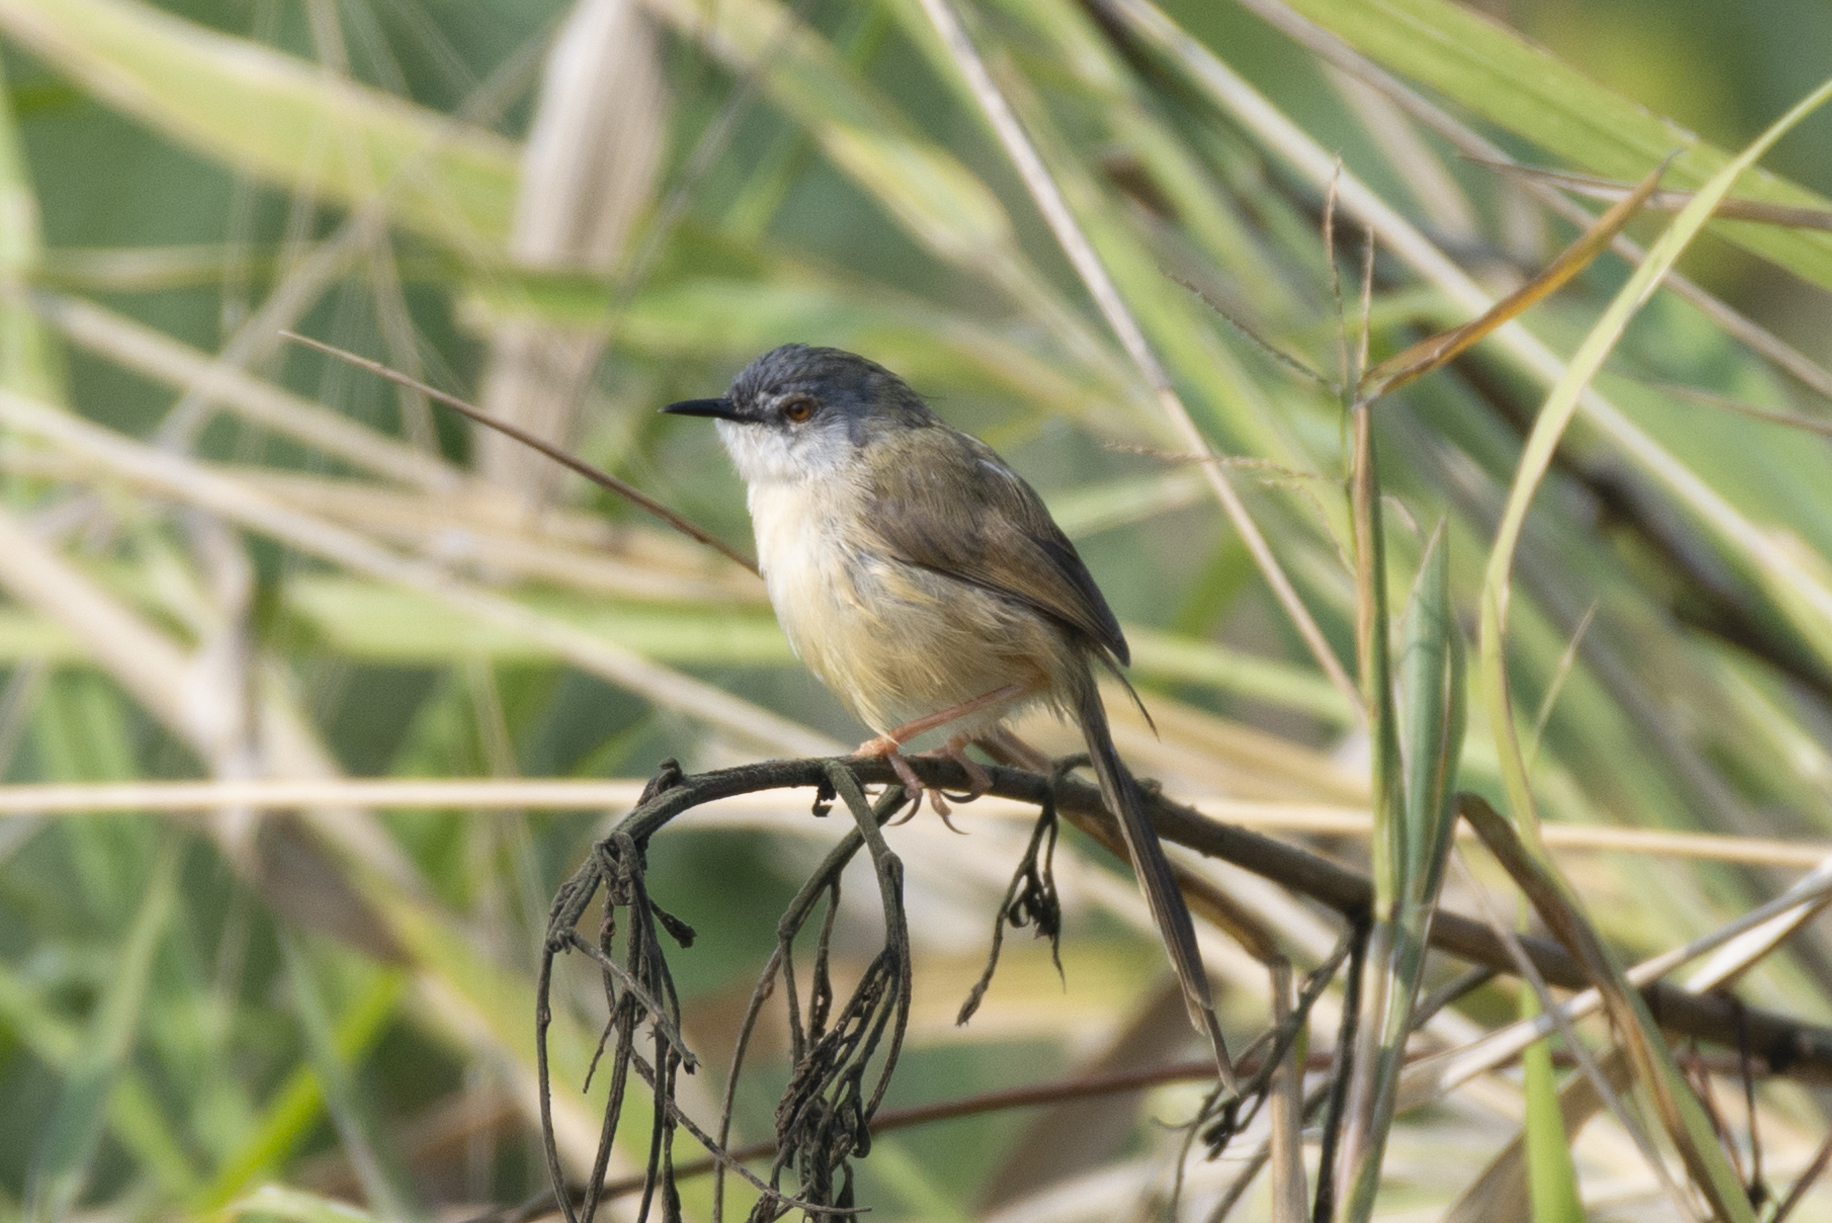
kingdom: Animalia
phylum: Chordata
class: Aves
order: Passeriformes
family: Cisticolidae
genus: Prinia
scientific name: Prinia flaviventris
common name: Yellow-bellied prinia
